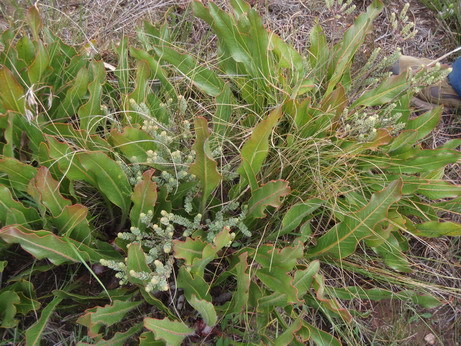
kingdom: Plantae
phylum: Tracheophyta
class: Magnoliopsida
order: Proteales
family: Proteaceae
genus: Protea
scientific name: Protea scolopendriifolia
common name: Harts-tongue-fern sugarbush
